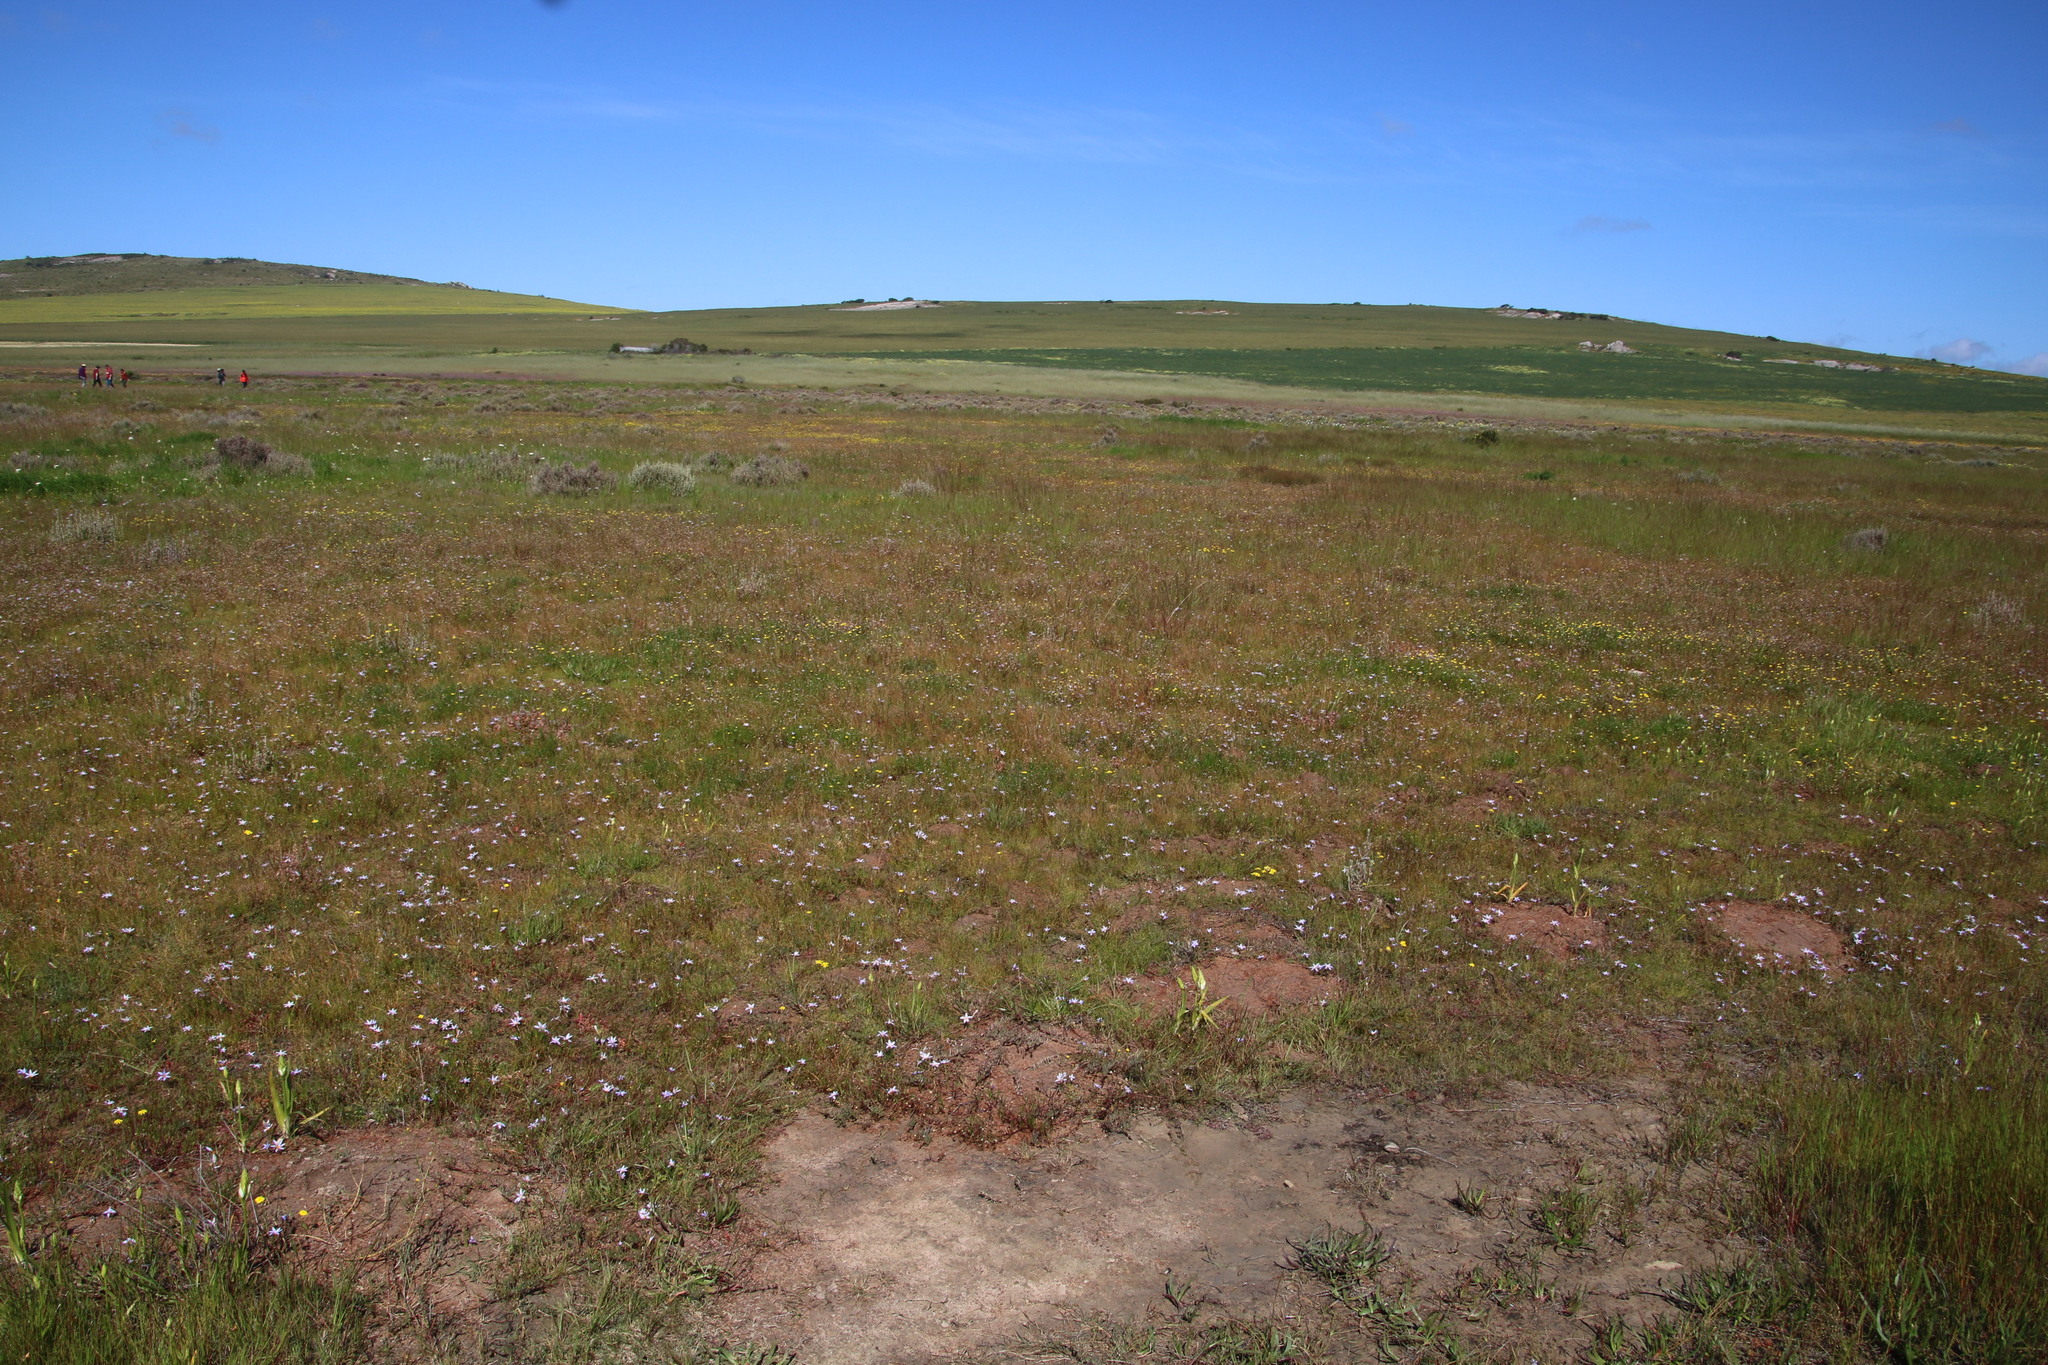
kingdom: Plantae
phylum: Tracheophyta
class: Liliopsida
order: Asparagales
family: Iridaceae
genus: Romulea
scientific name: Romulea tabularis
